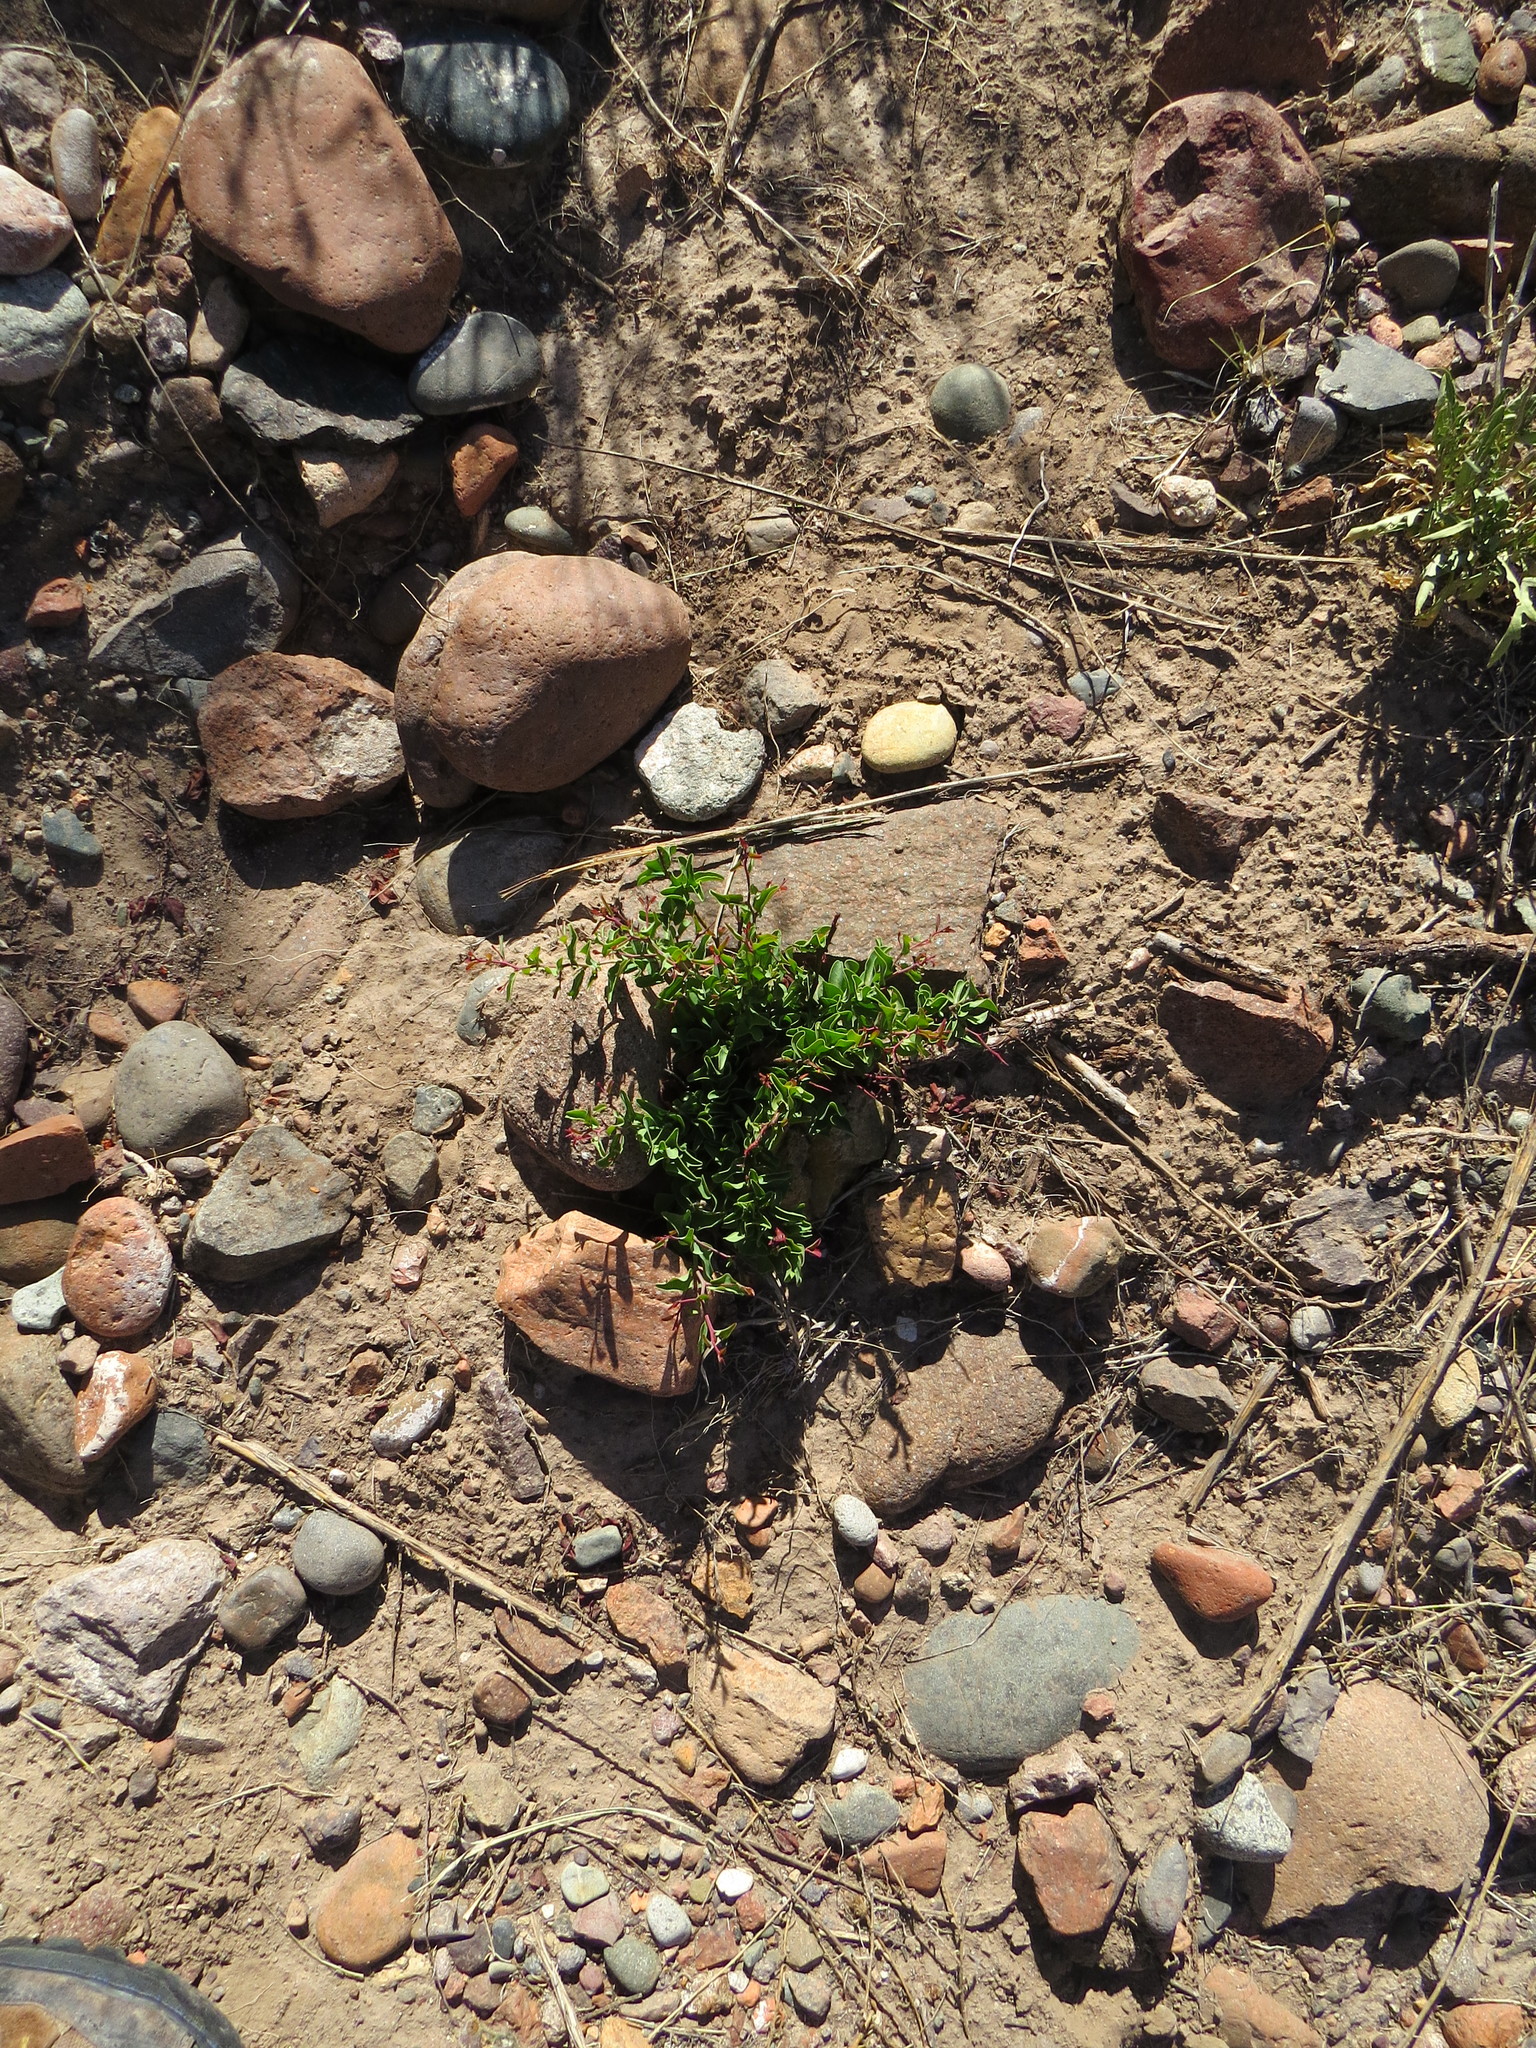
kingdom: Plantae
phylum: Tracheophyta
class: Magnoliopsida
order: Santalales
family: Ximeniaceae
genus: Ximenia
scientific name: Ximenia americana
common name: Tallowwood
